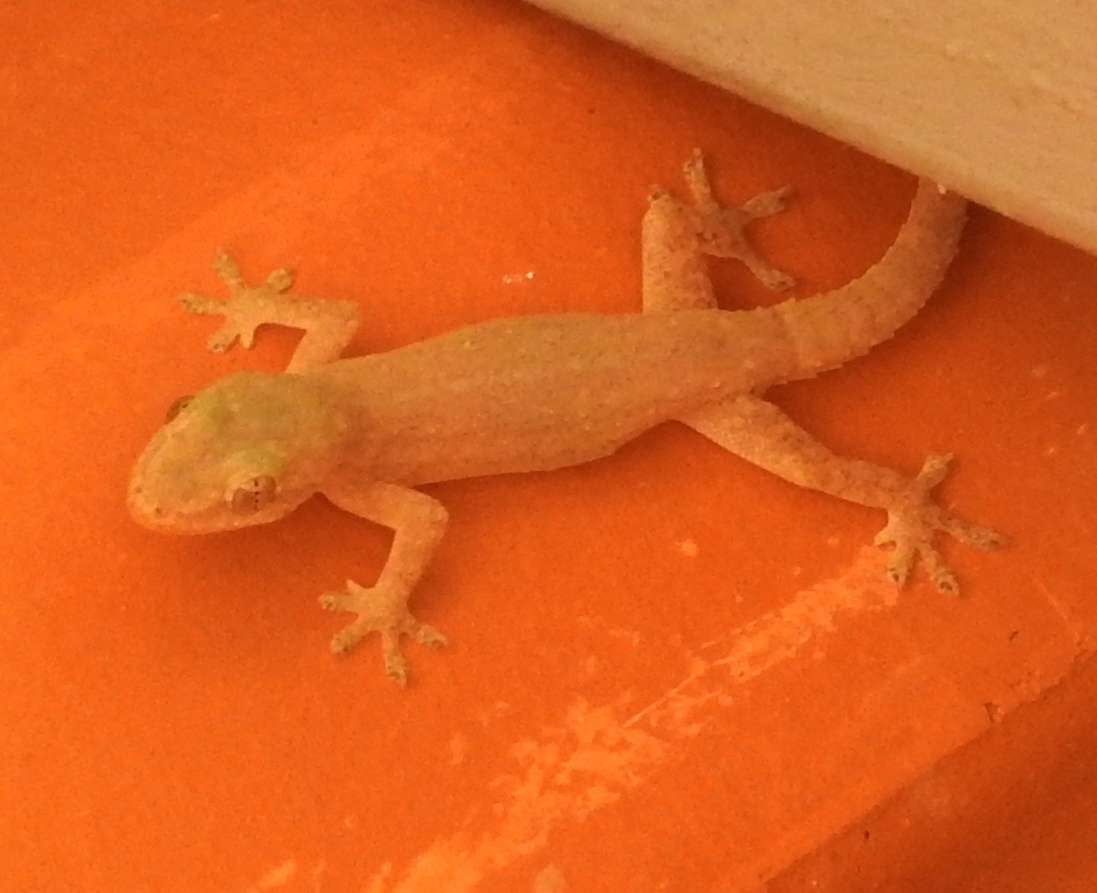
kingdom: Animalia
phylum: Chordata
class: Squamata
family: Gekkonidae
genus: Hemidactylus
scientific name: Hemidactylus frenatus
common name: Common house gecko
